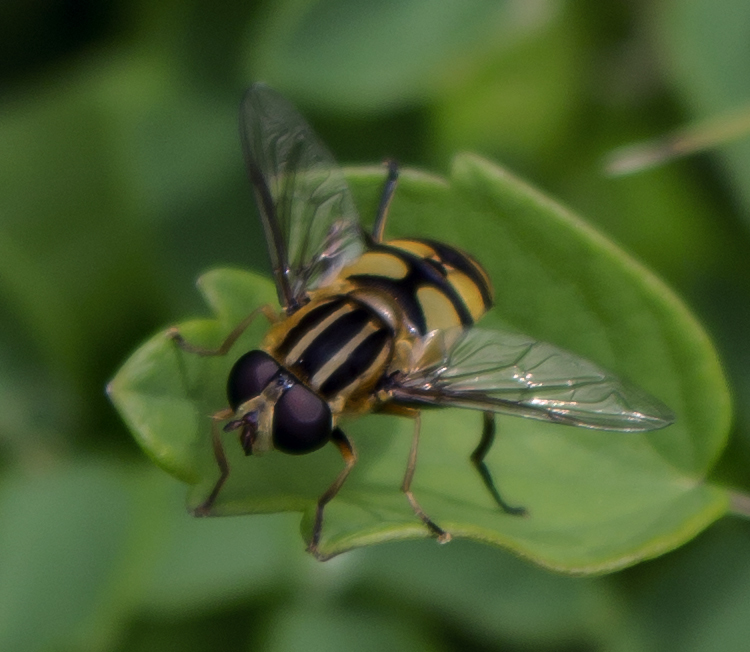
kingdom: Animalia
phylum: Arthropoda
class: Insecta
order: Diptera
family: Syrphidae
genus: Helophilus
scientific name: Helophilus fasciatus
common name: Narrow-headed marsh fly
